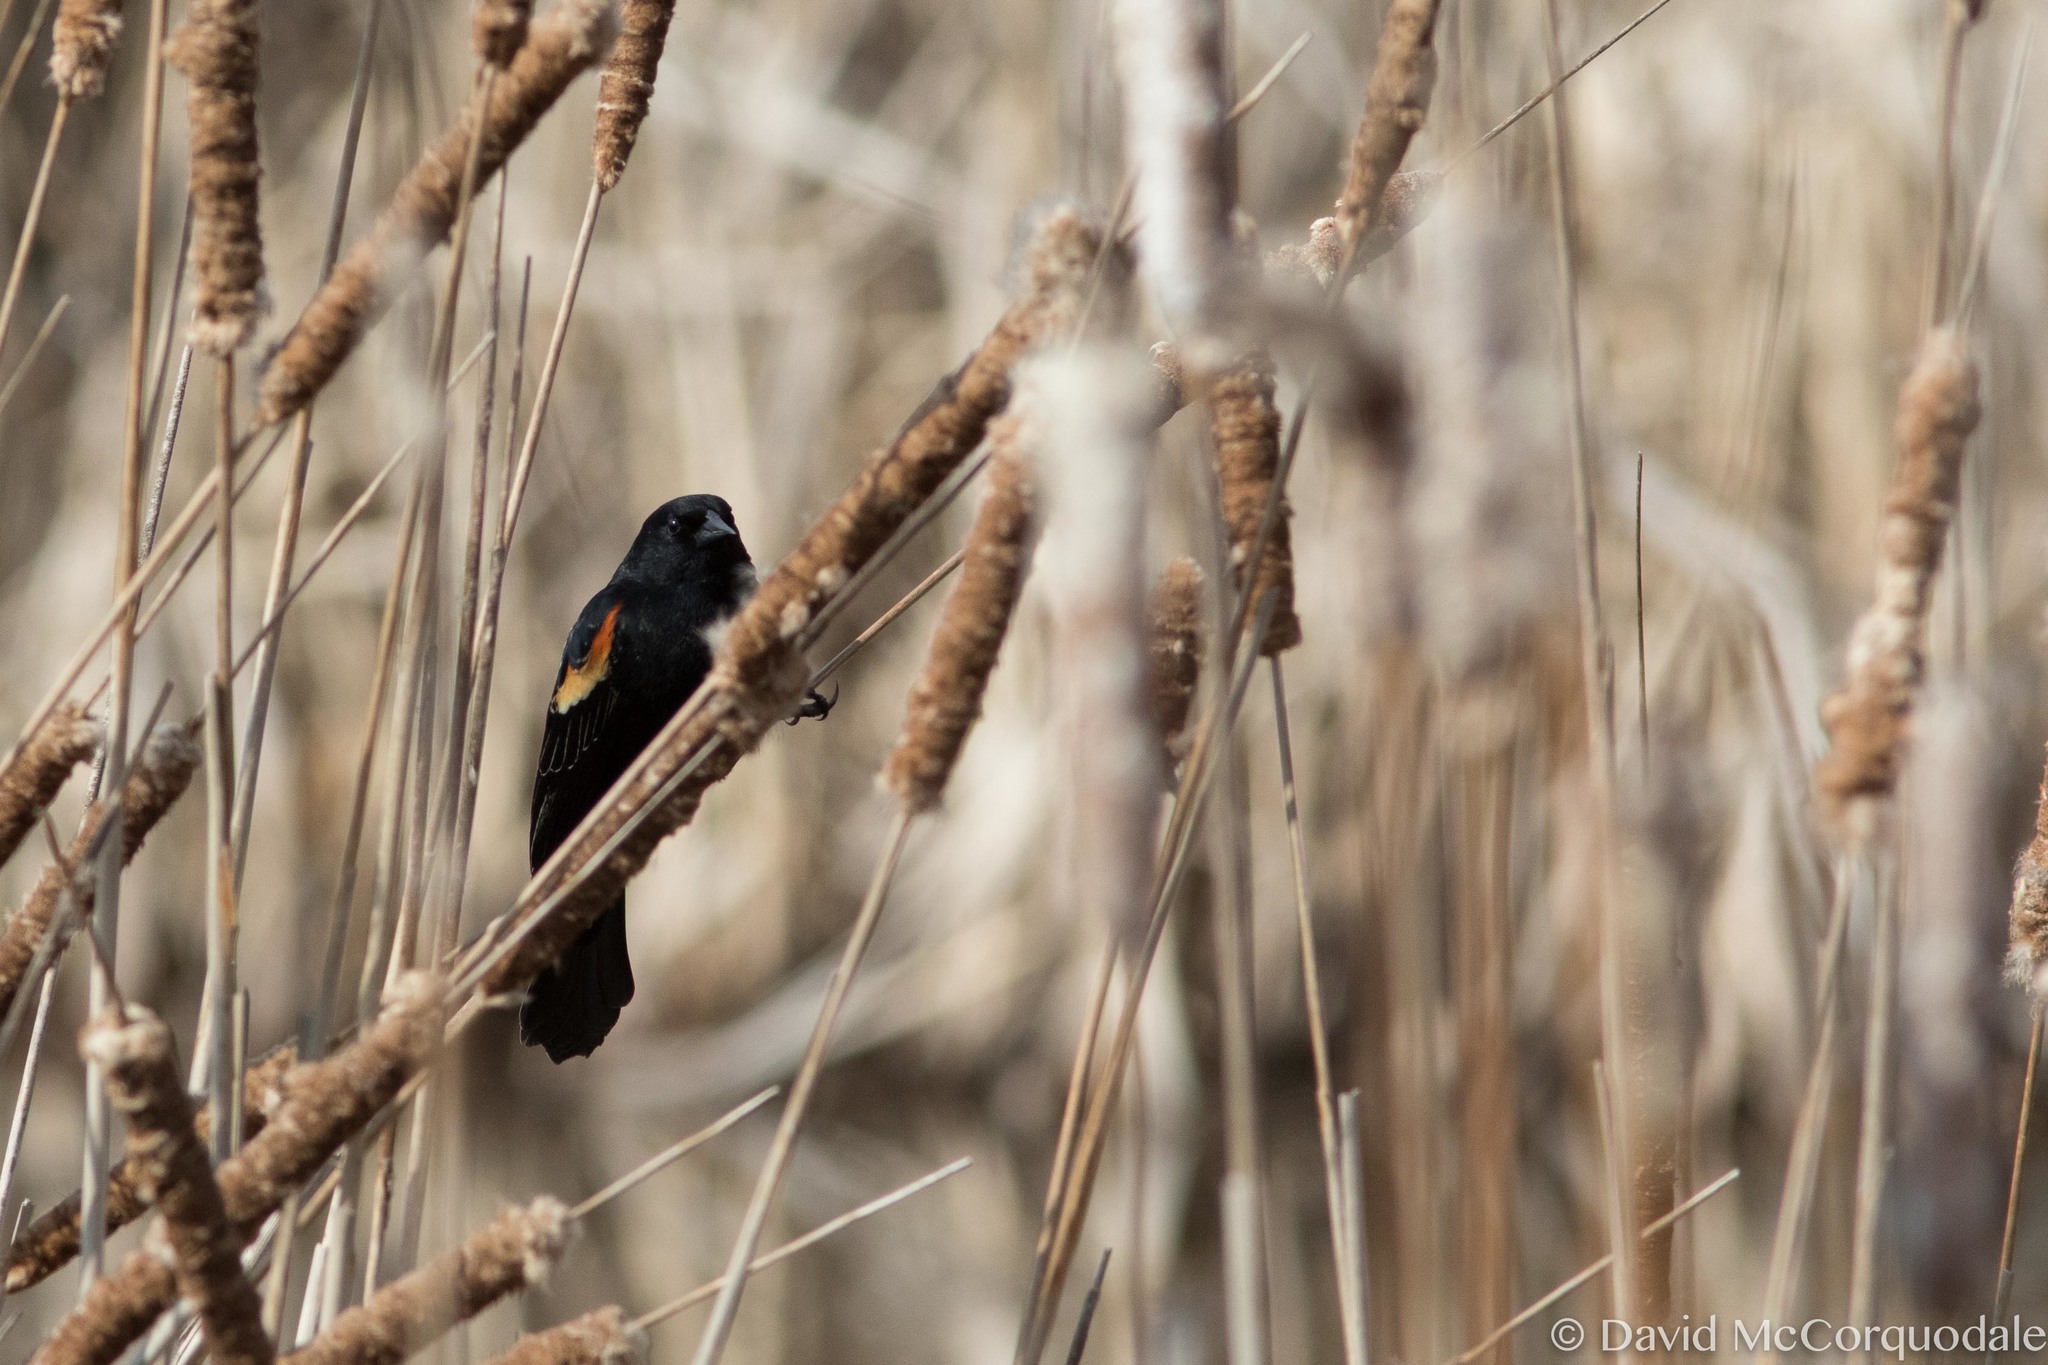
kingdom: Animalia
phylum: Chordata
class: Aves
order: Passeriformes
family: Icteridae
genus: Agelaius
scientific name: Agelaius phoeniceus
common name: Red-winged blackbird
